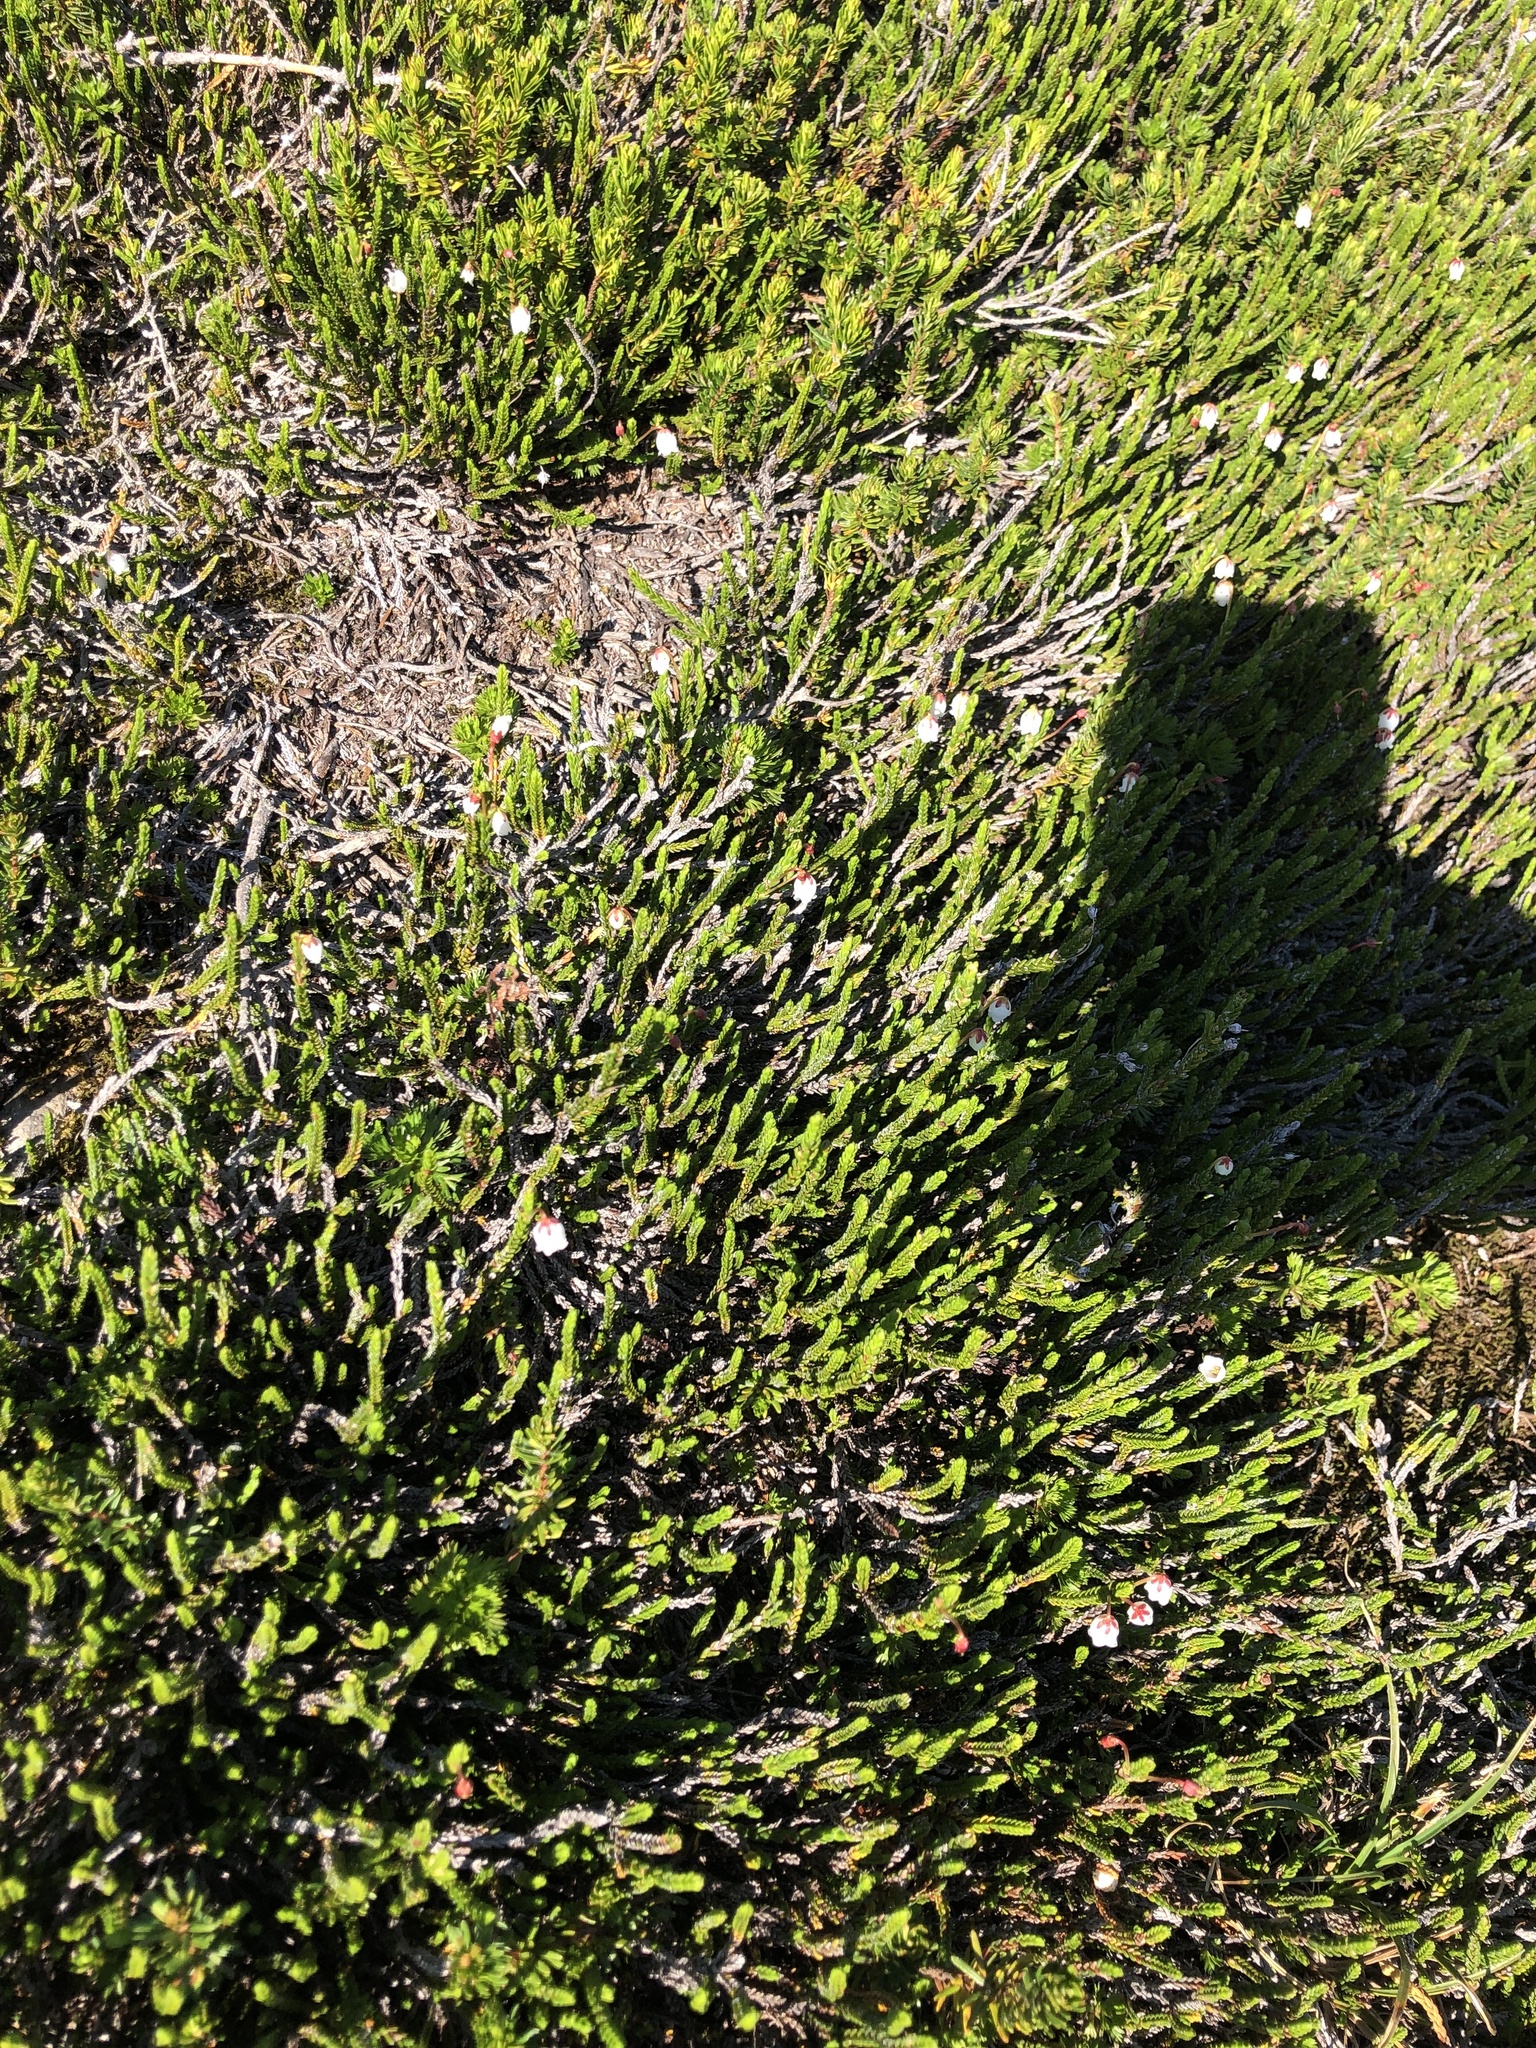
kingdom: Plantae
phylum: Tracheophyta
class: Magnoliopsida
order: Ericales
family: Ericaceae
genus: Cassiope
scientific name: Cassiope mertensiana
